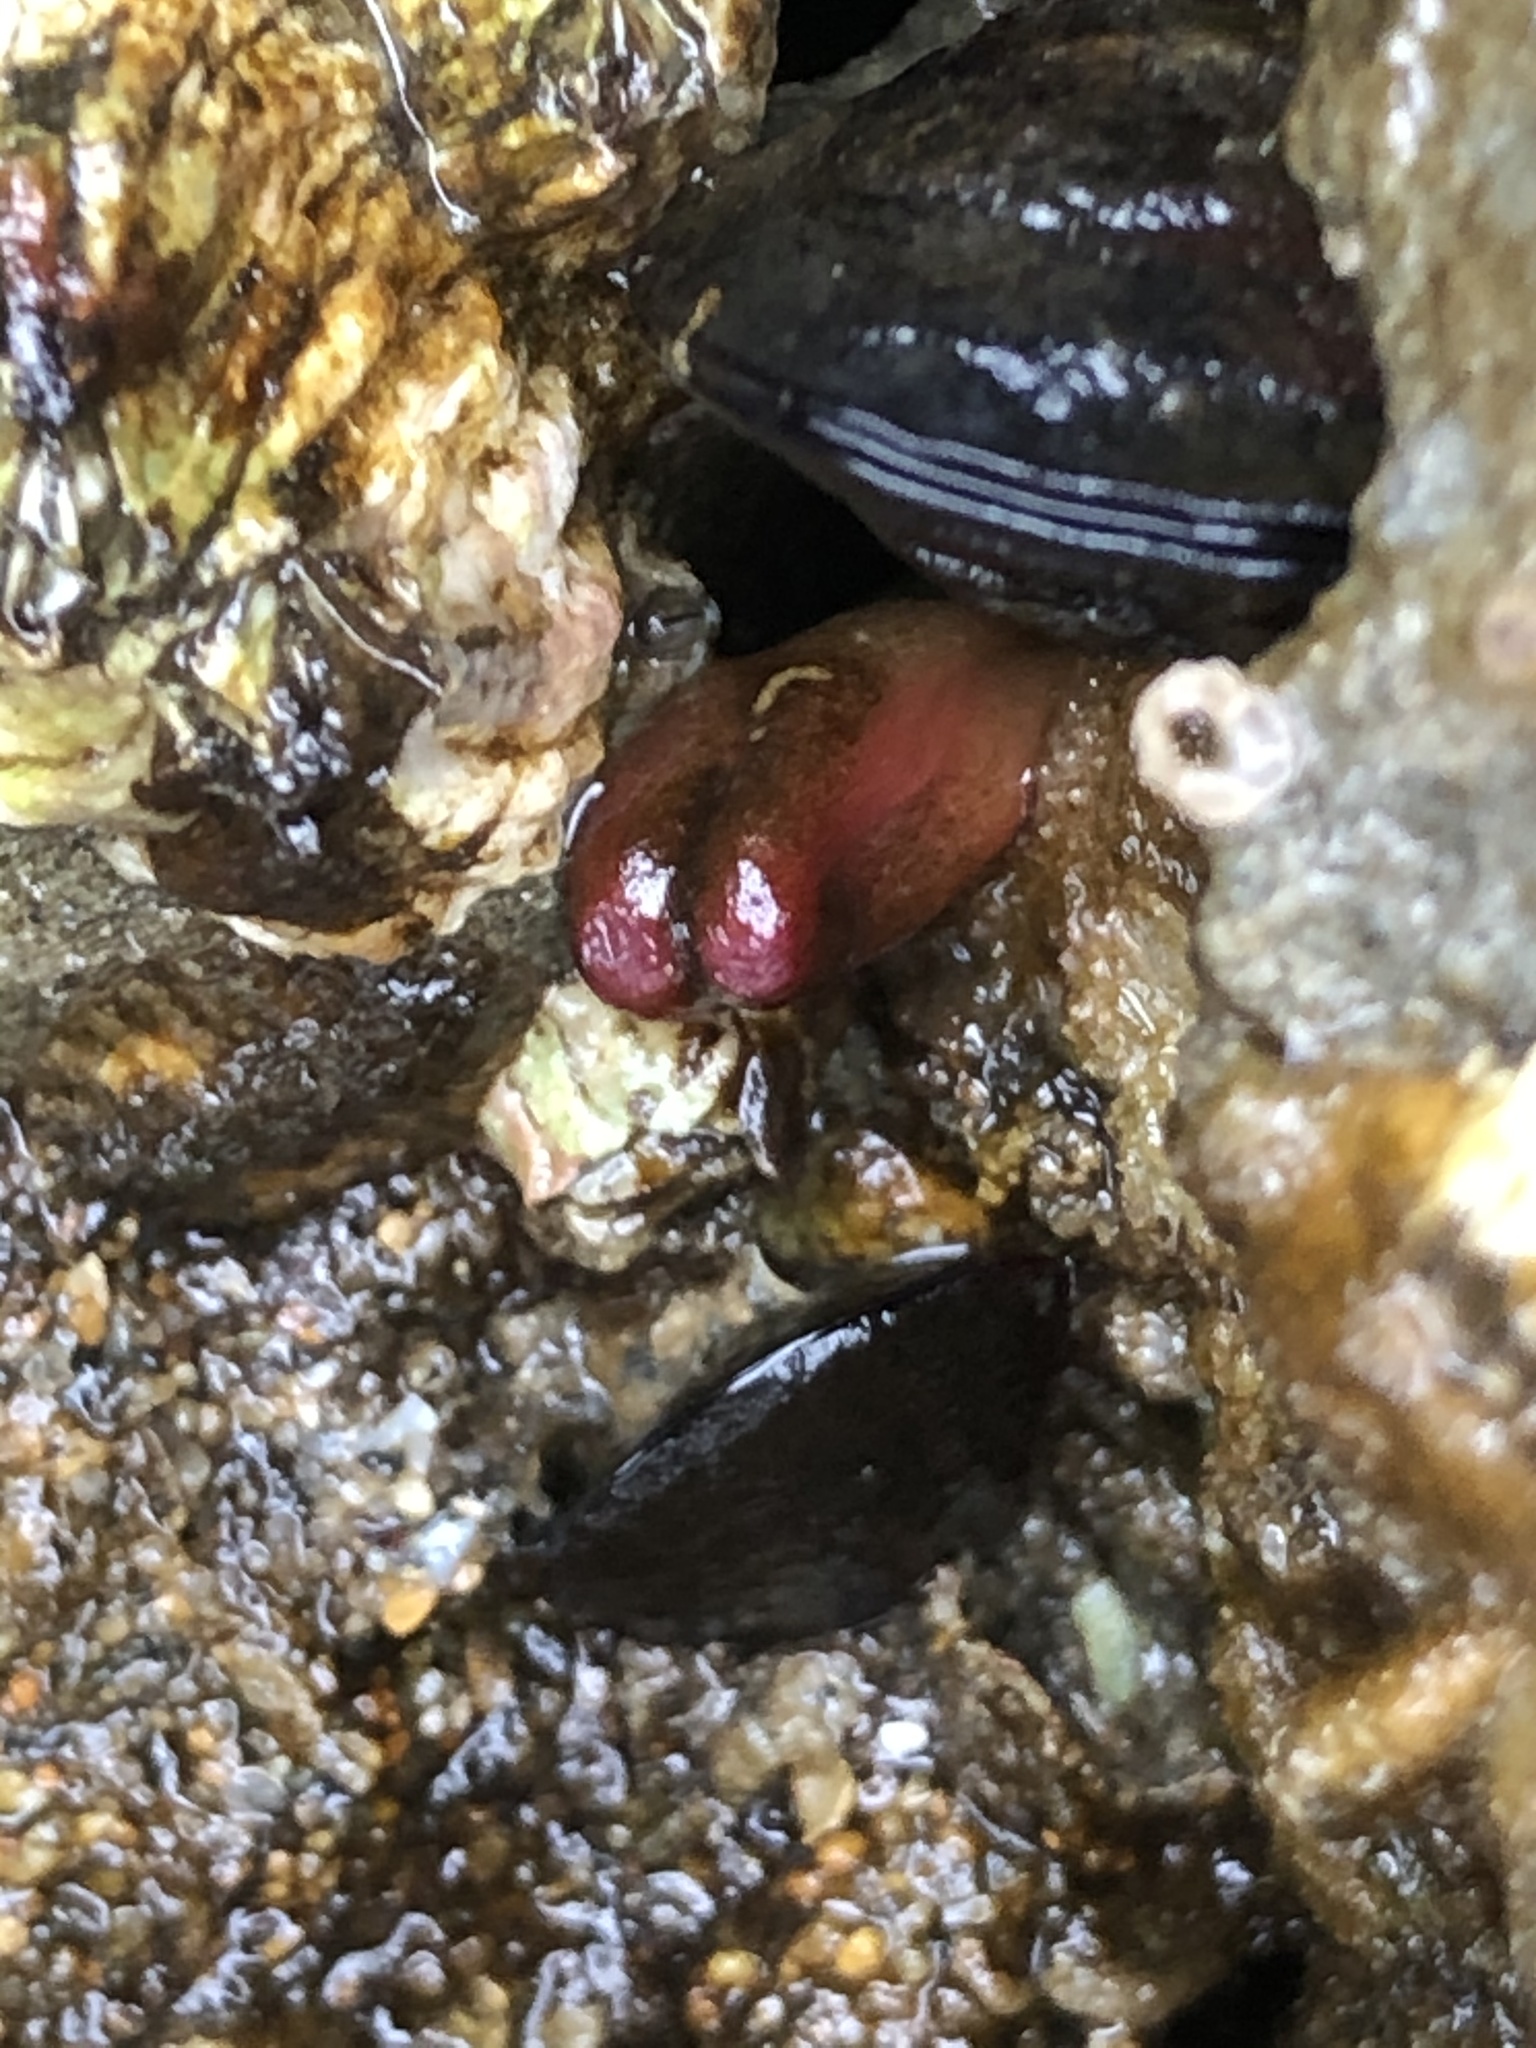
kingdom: Animalia
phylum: Mollusca
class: Bivalvia
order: Adapedonta
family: Hiatellidae
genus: Hiatella
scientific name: Hiatella arctica
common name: Arctic hiatella
